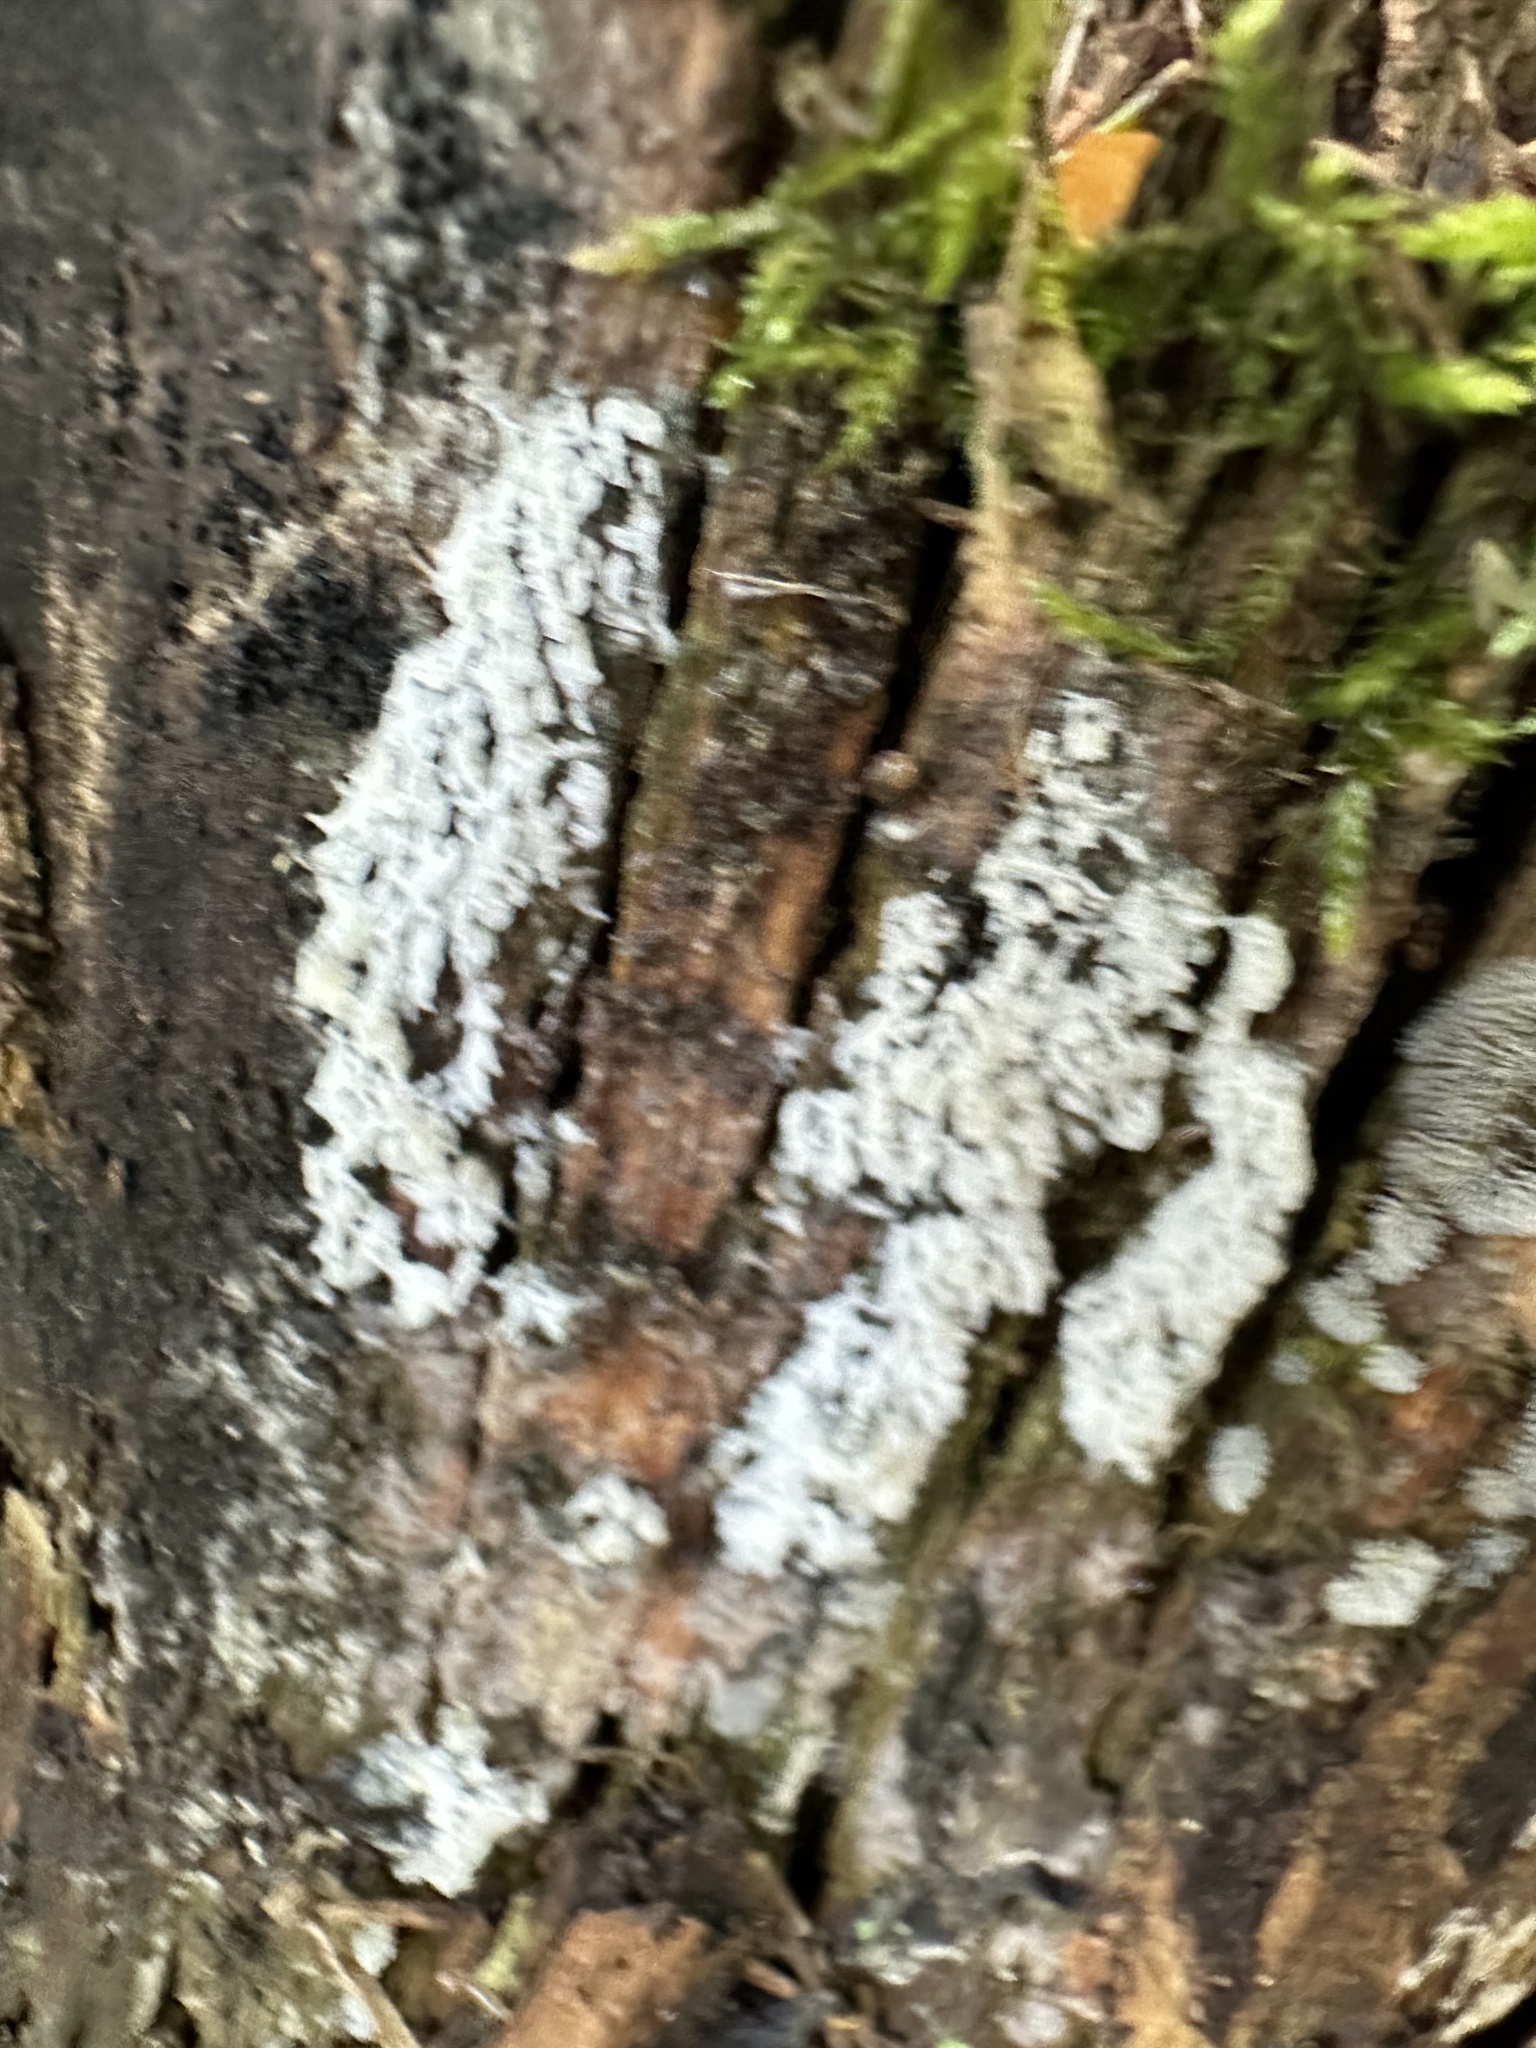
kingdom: Protozoa
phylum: Mycetozoa
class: Protosteliomycetes
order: Ceratiomyxales
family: Ceratiomyxaceae
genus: Ceratiomyxa
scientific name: Ceratiomyxa fruticulosa
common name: Honeycomb coral slime mold
